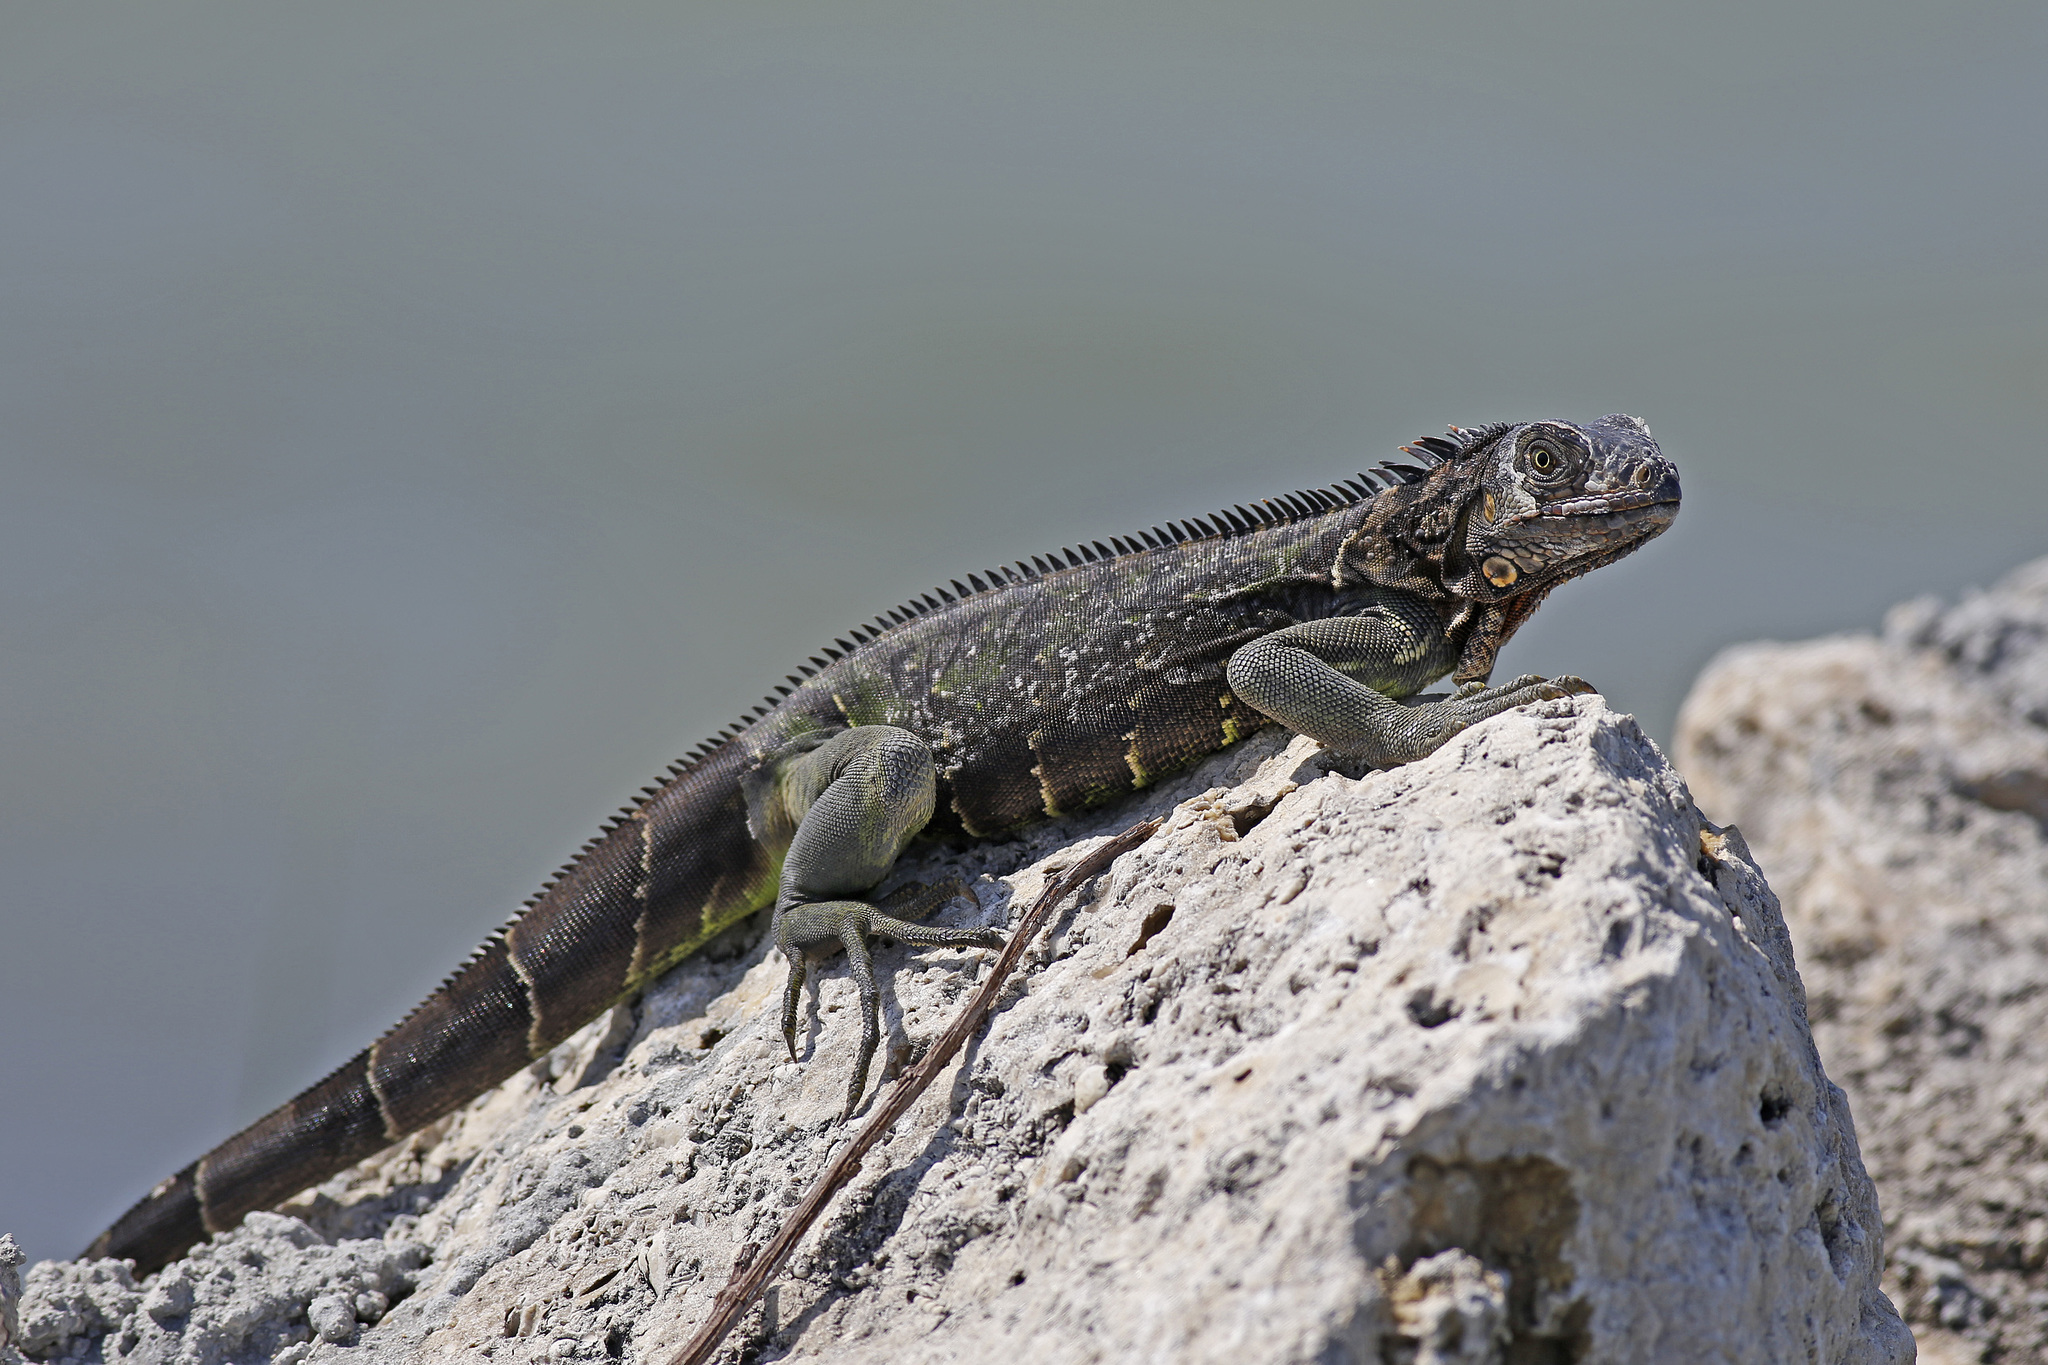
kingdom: Animalia
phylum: Chordata
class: Squamata
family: Iguanidae
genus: Iguana
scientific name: Iguana iguana
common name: Green iguana
